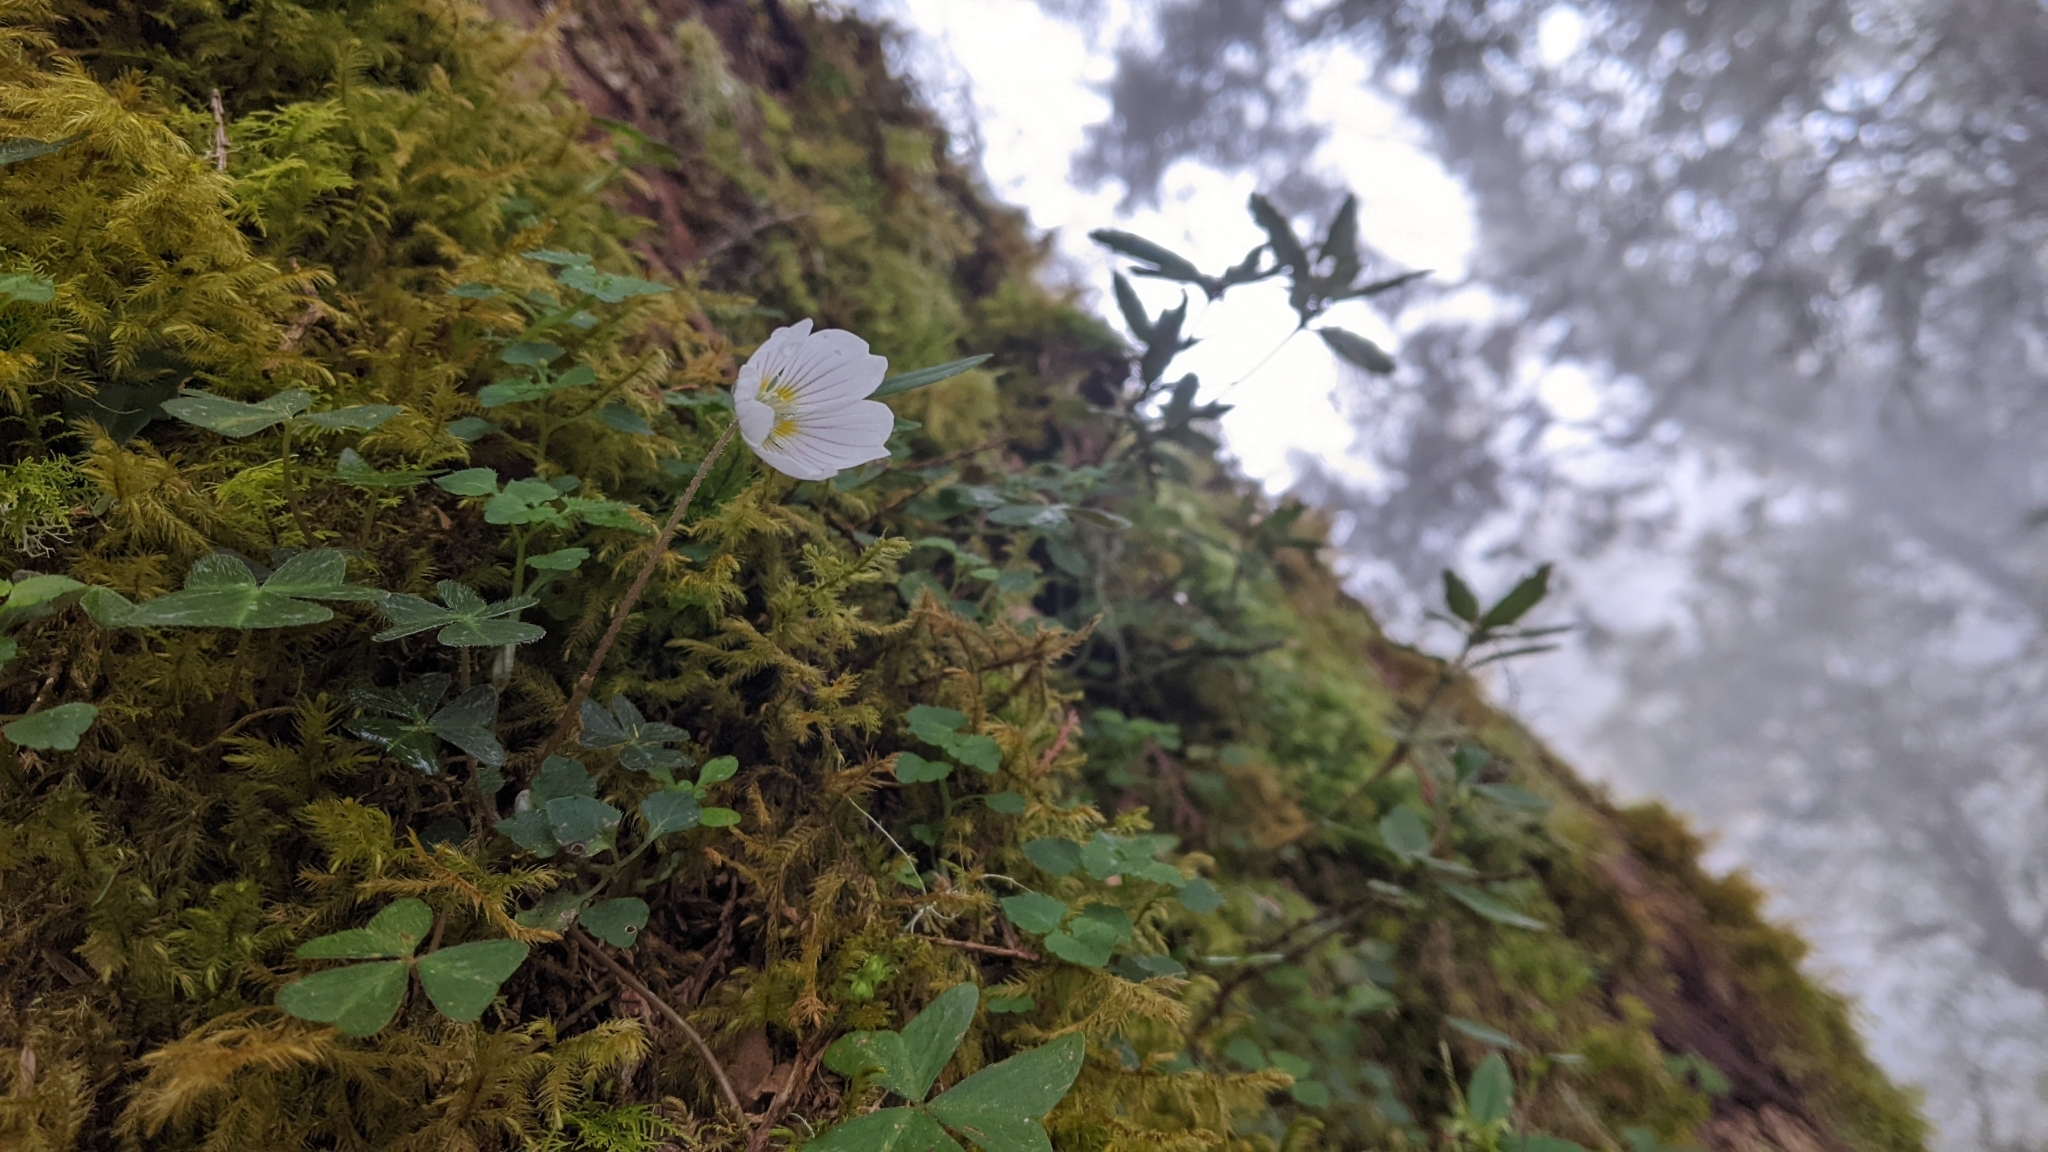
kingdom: Plantae
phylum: Tracheophyta
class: Magnoliopsida
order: Oxalidales
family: Oxalidaceae
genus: Oxalis
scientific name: Oxalis griffithii
